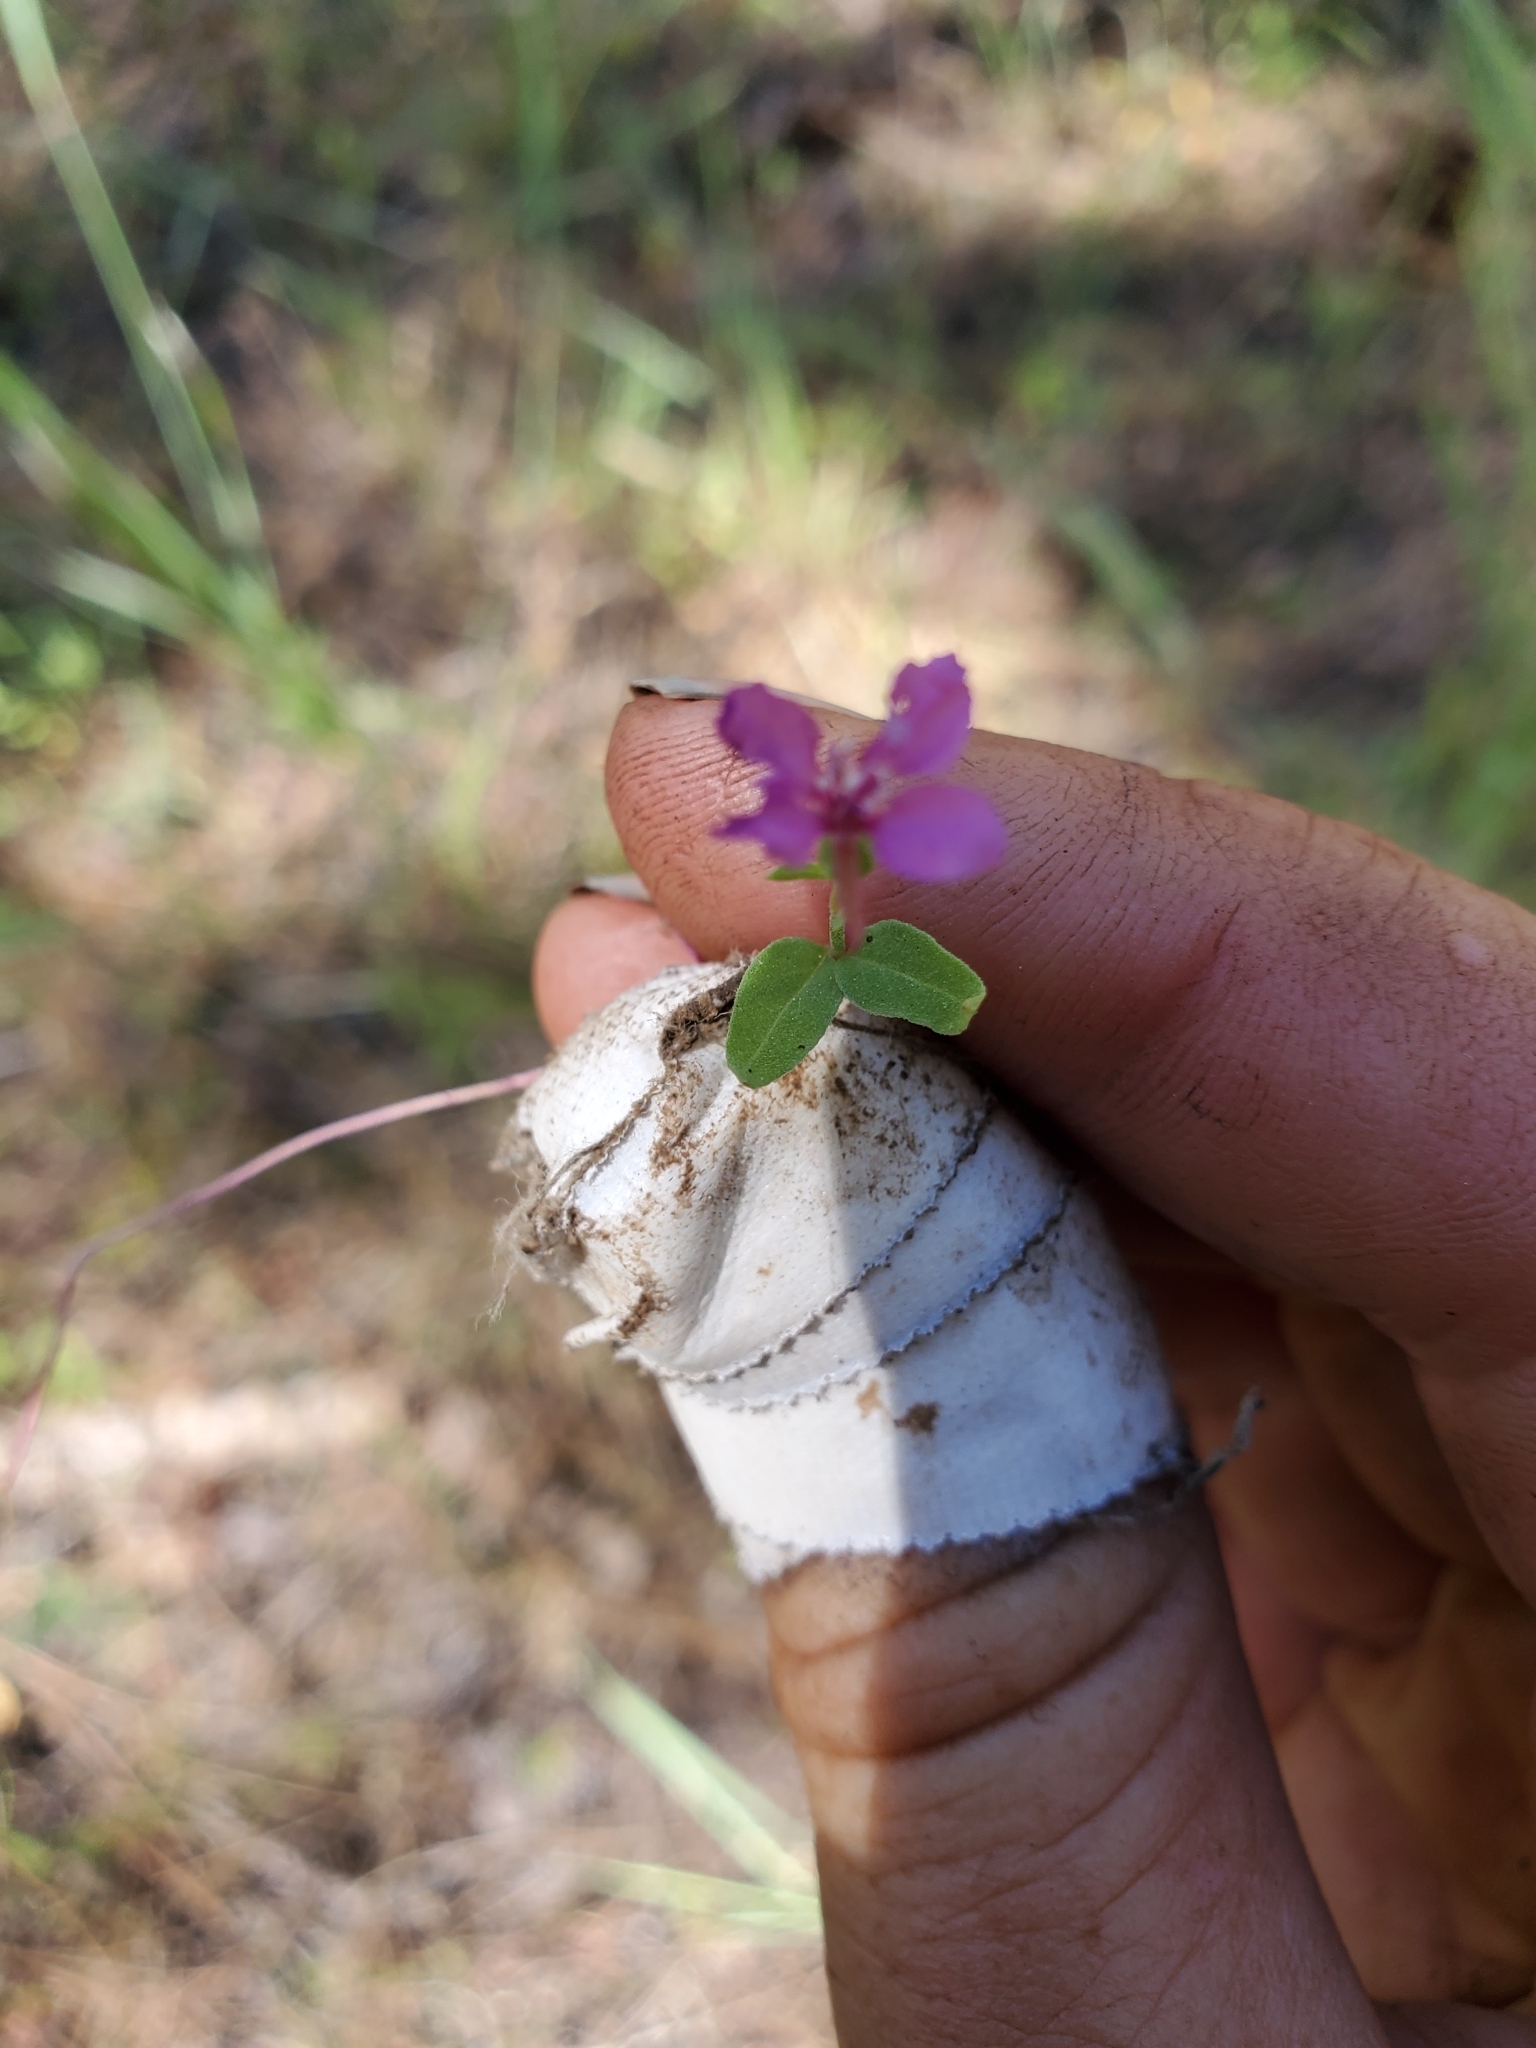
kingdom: Plantae
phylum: Tracheophyta
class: Magnoliopsida
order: Myrtales
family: Onagraceae
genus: Clarkia
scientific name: Clarkia rhomboidea
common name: Broadleaf clarkia
